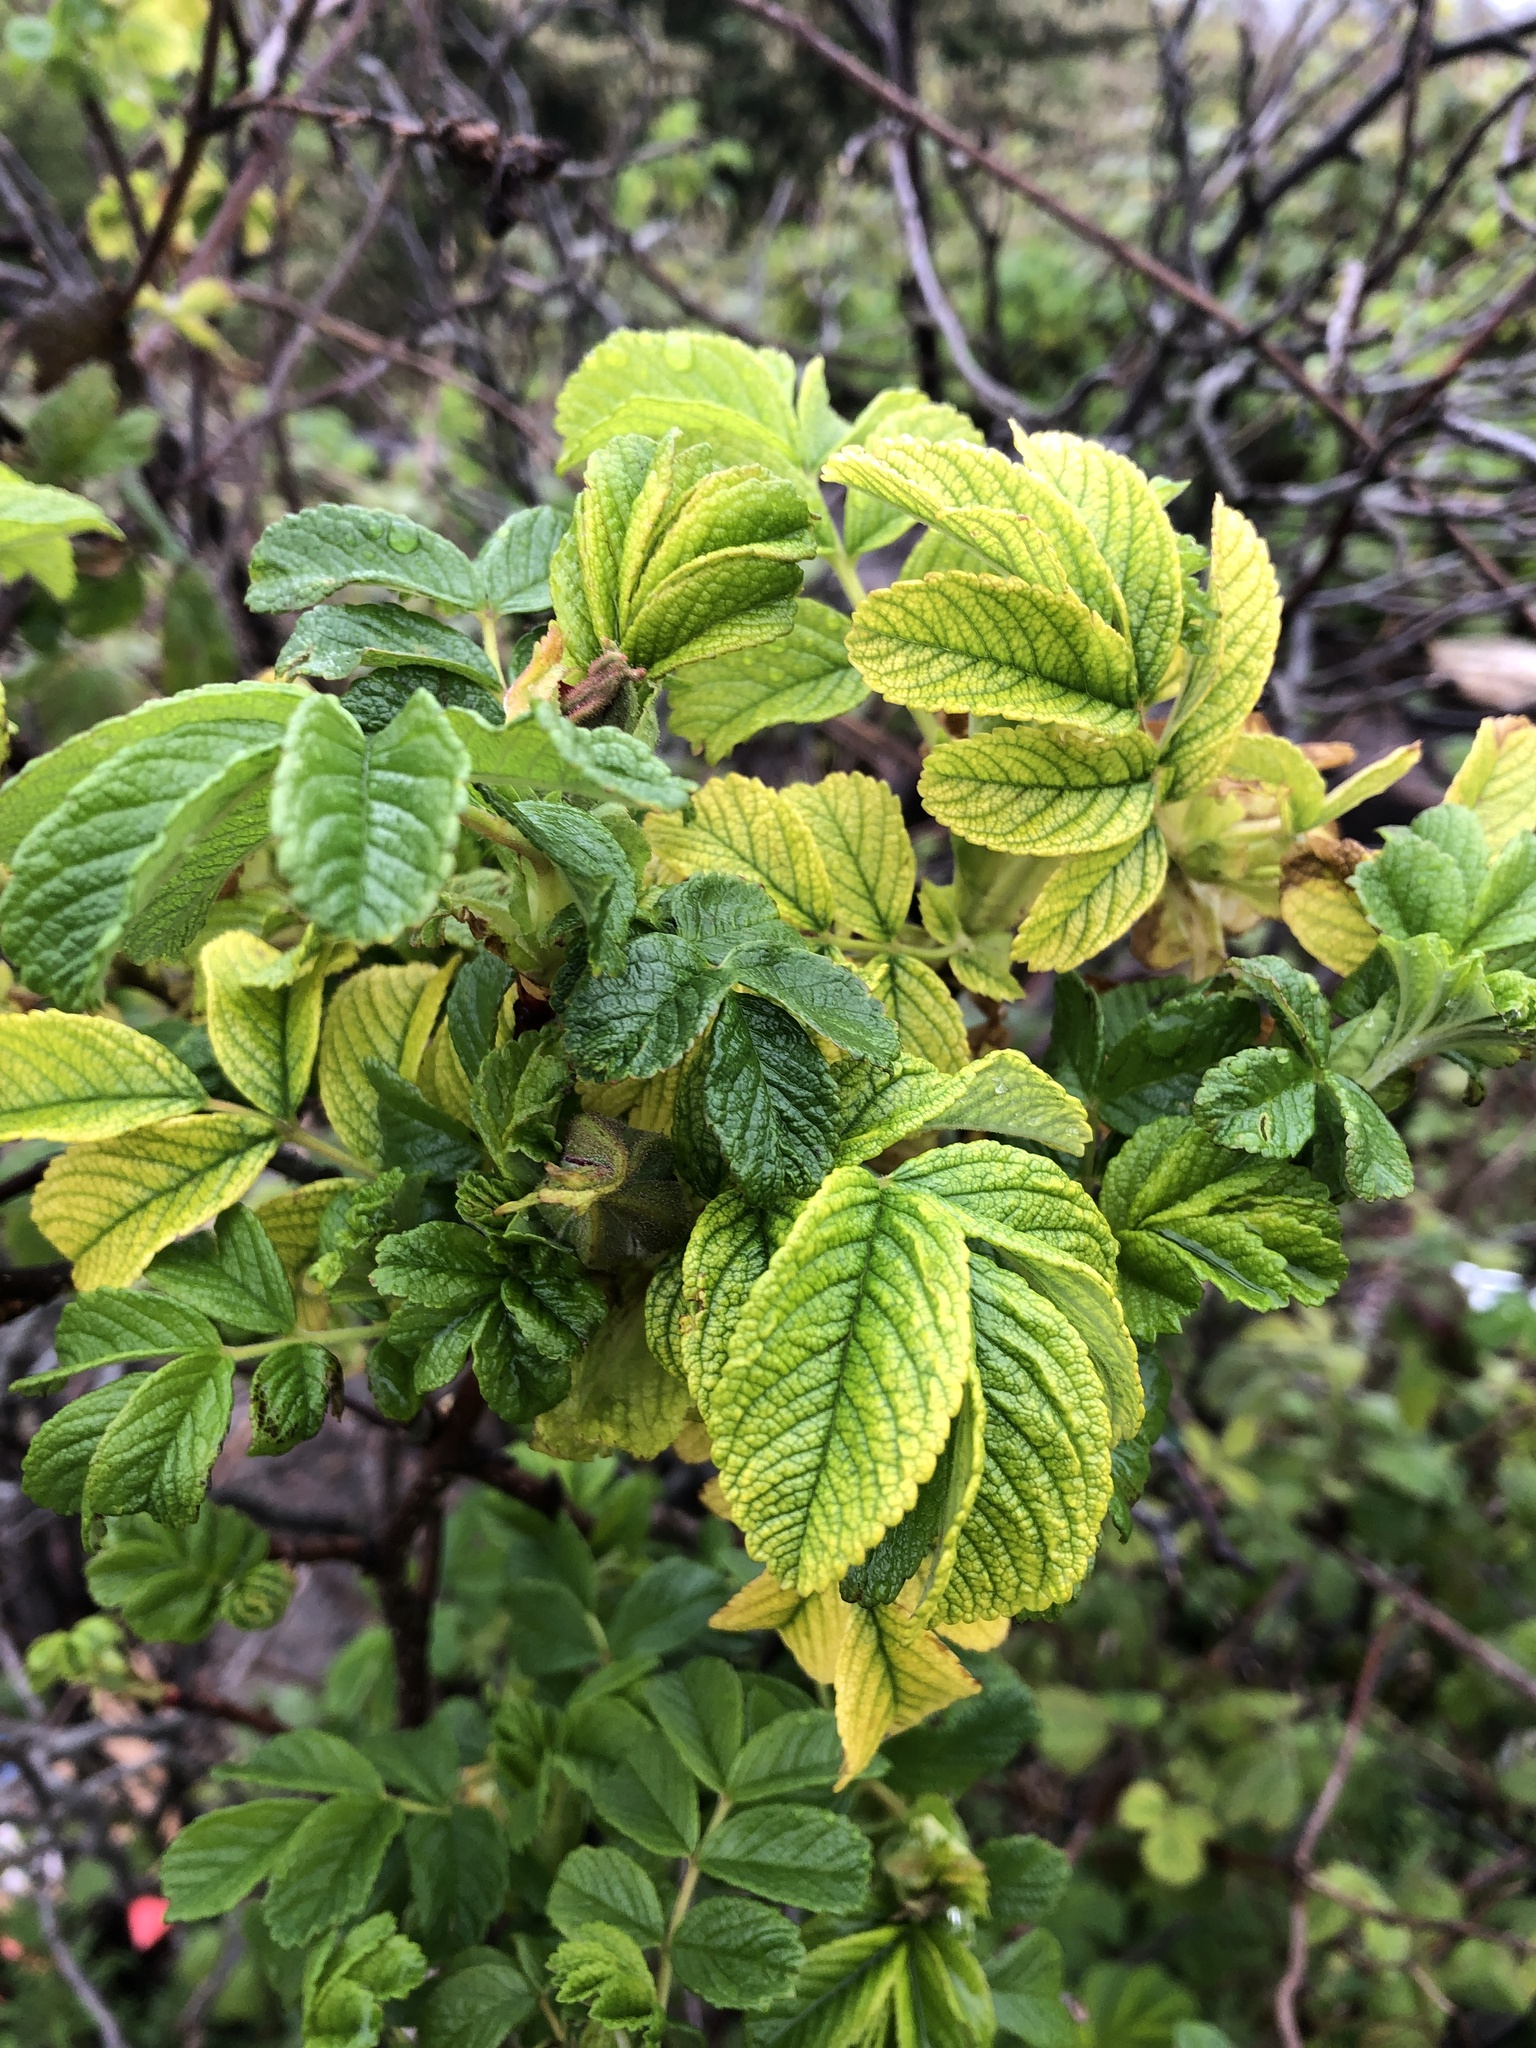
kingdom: Plantae
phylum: Tracheophyta
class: Magnoliopsida
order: Rosales
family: Rosaceae
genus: Rosa
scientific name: Rosa rugosa
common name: Japanese rose
